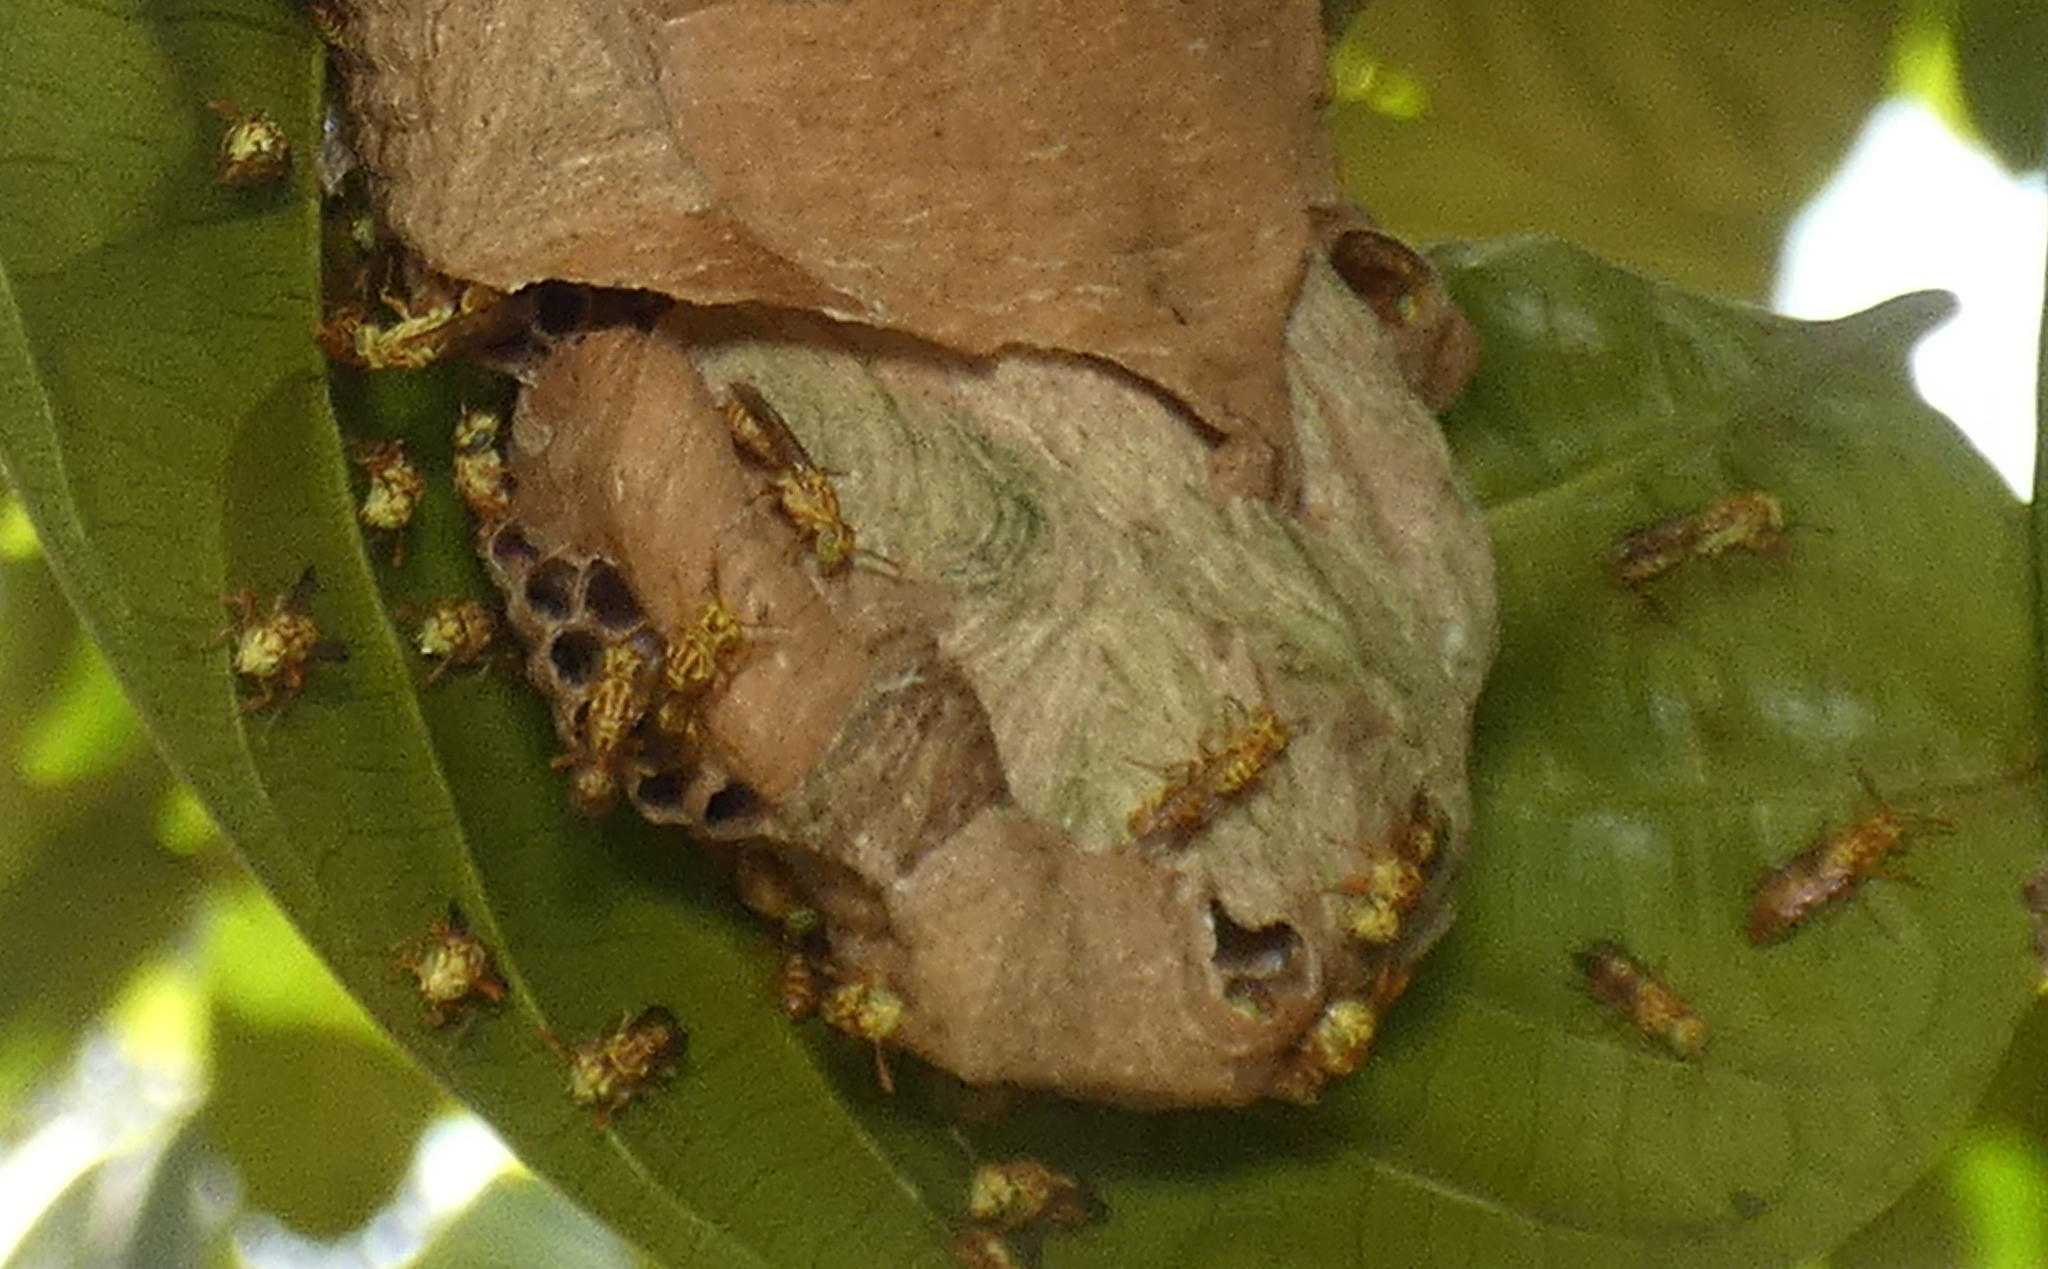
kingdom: Animalia
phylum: Arthropoda
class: Insecta
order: Hymenoptera
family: Vespidae
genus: Protopolybia
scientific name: Protopolybia potiguara
